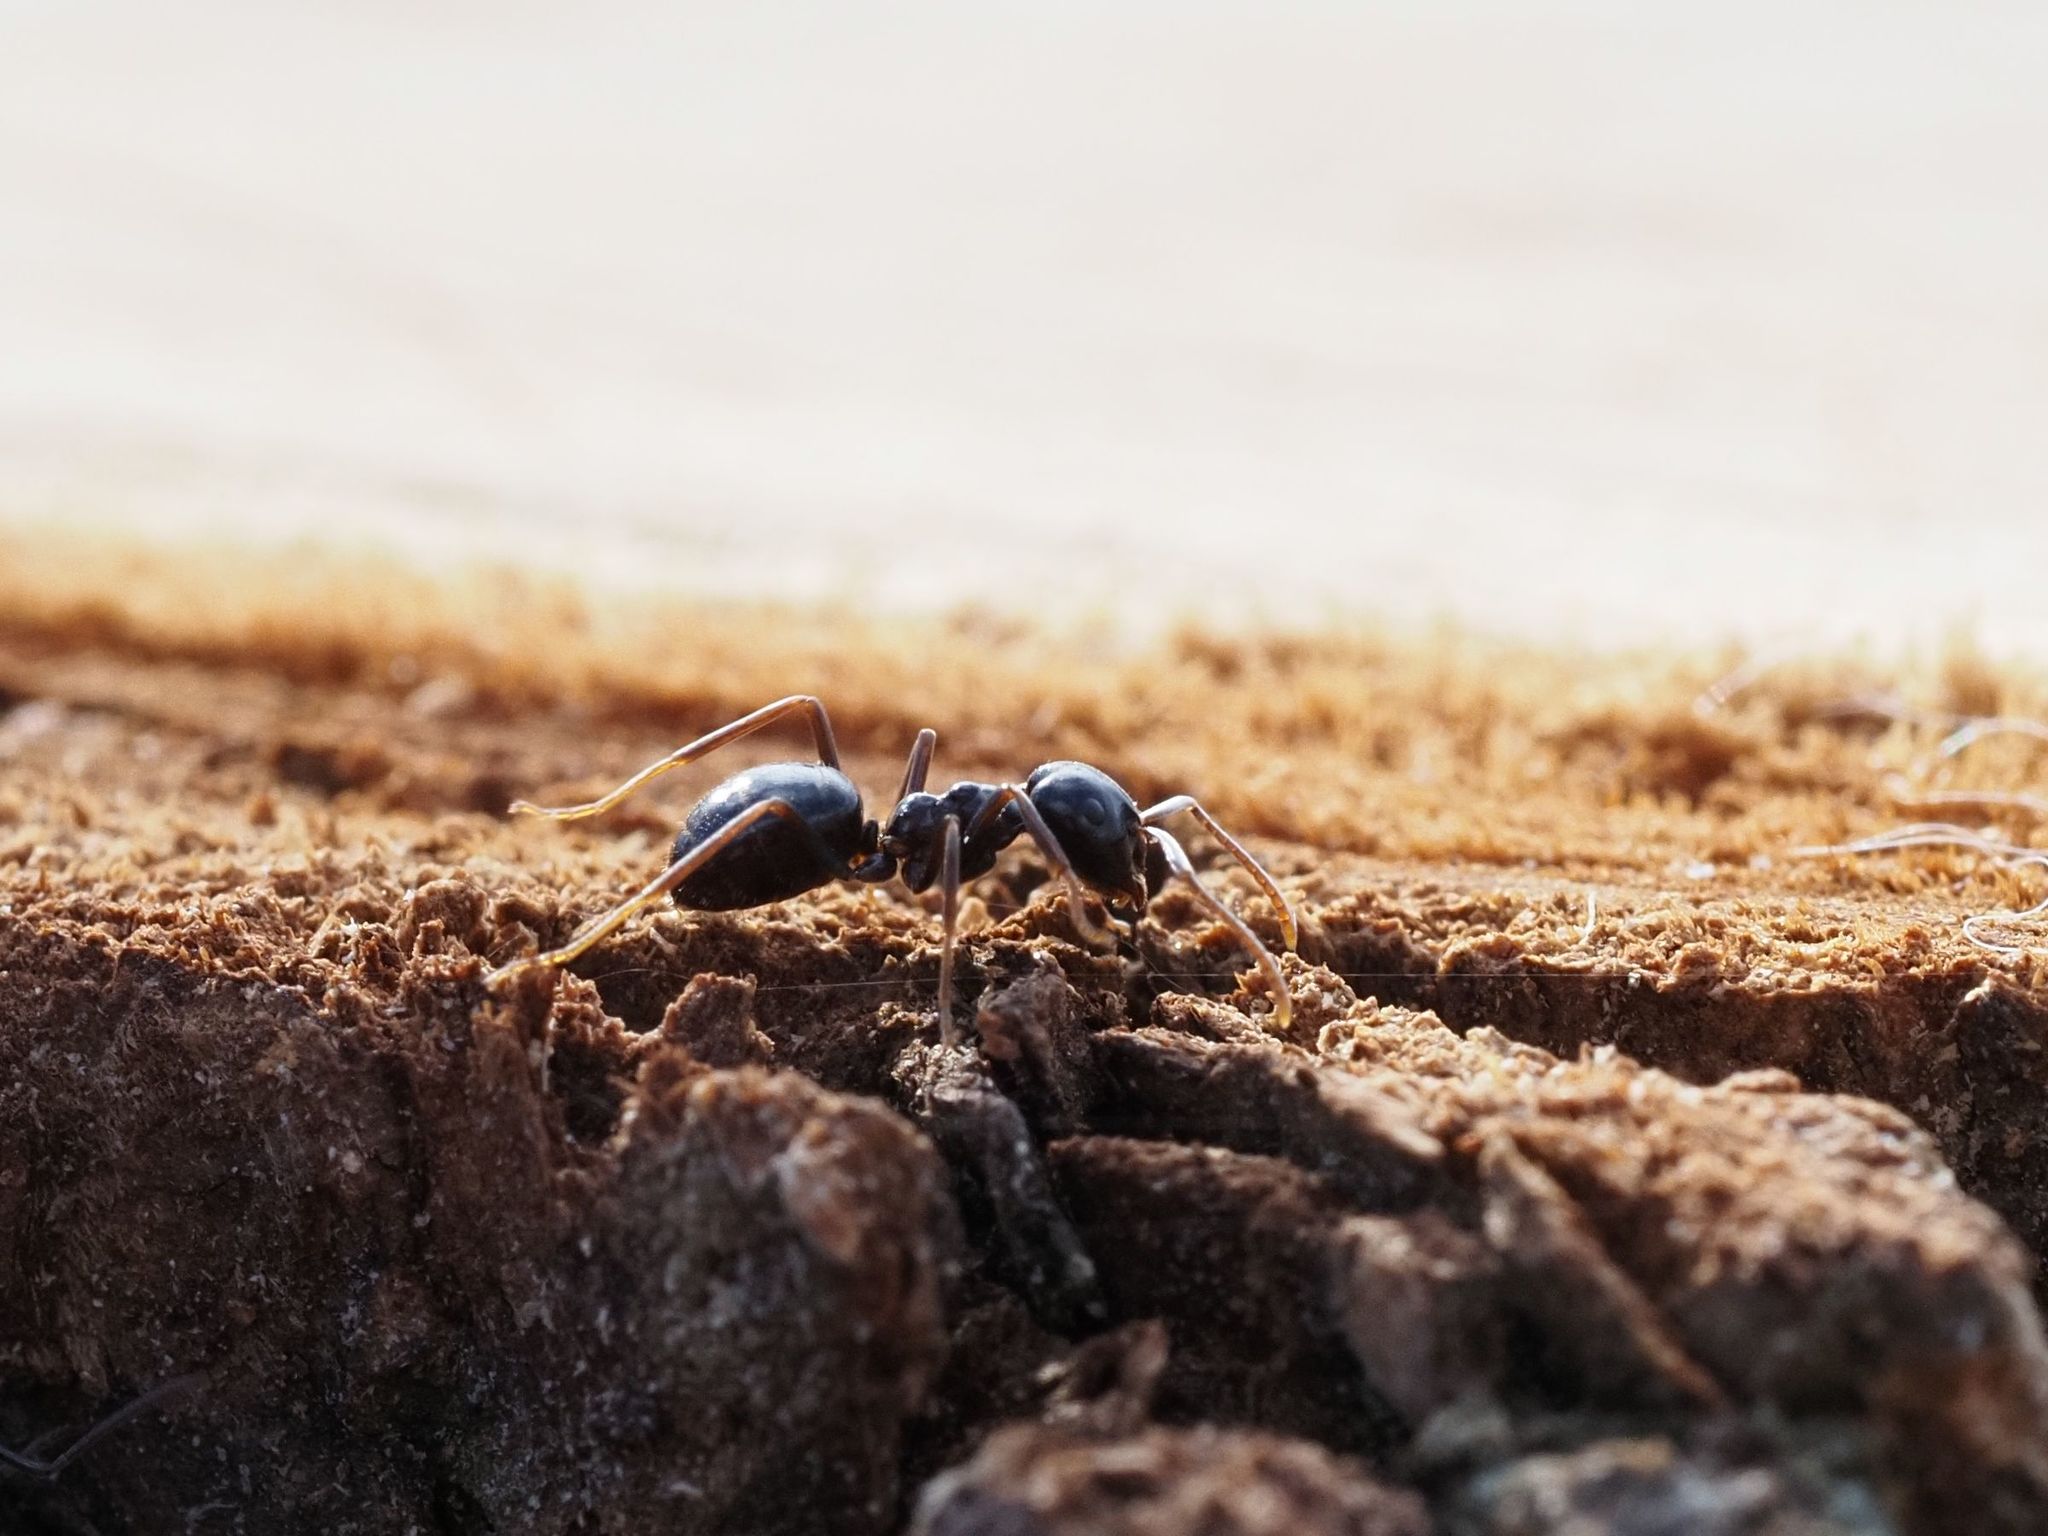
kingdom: Animalia
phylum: Arthropoda
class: Insecta
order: Hymenoptera
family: Formicidae
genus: Lasius
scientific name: Lasius fuliginosus
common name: Jet ant
